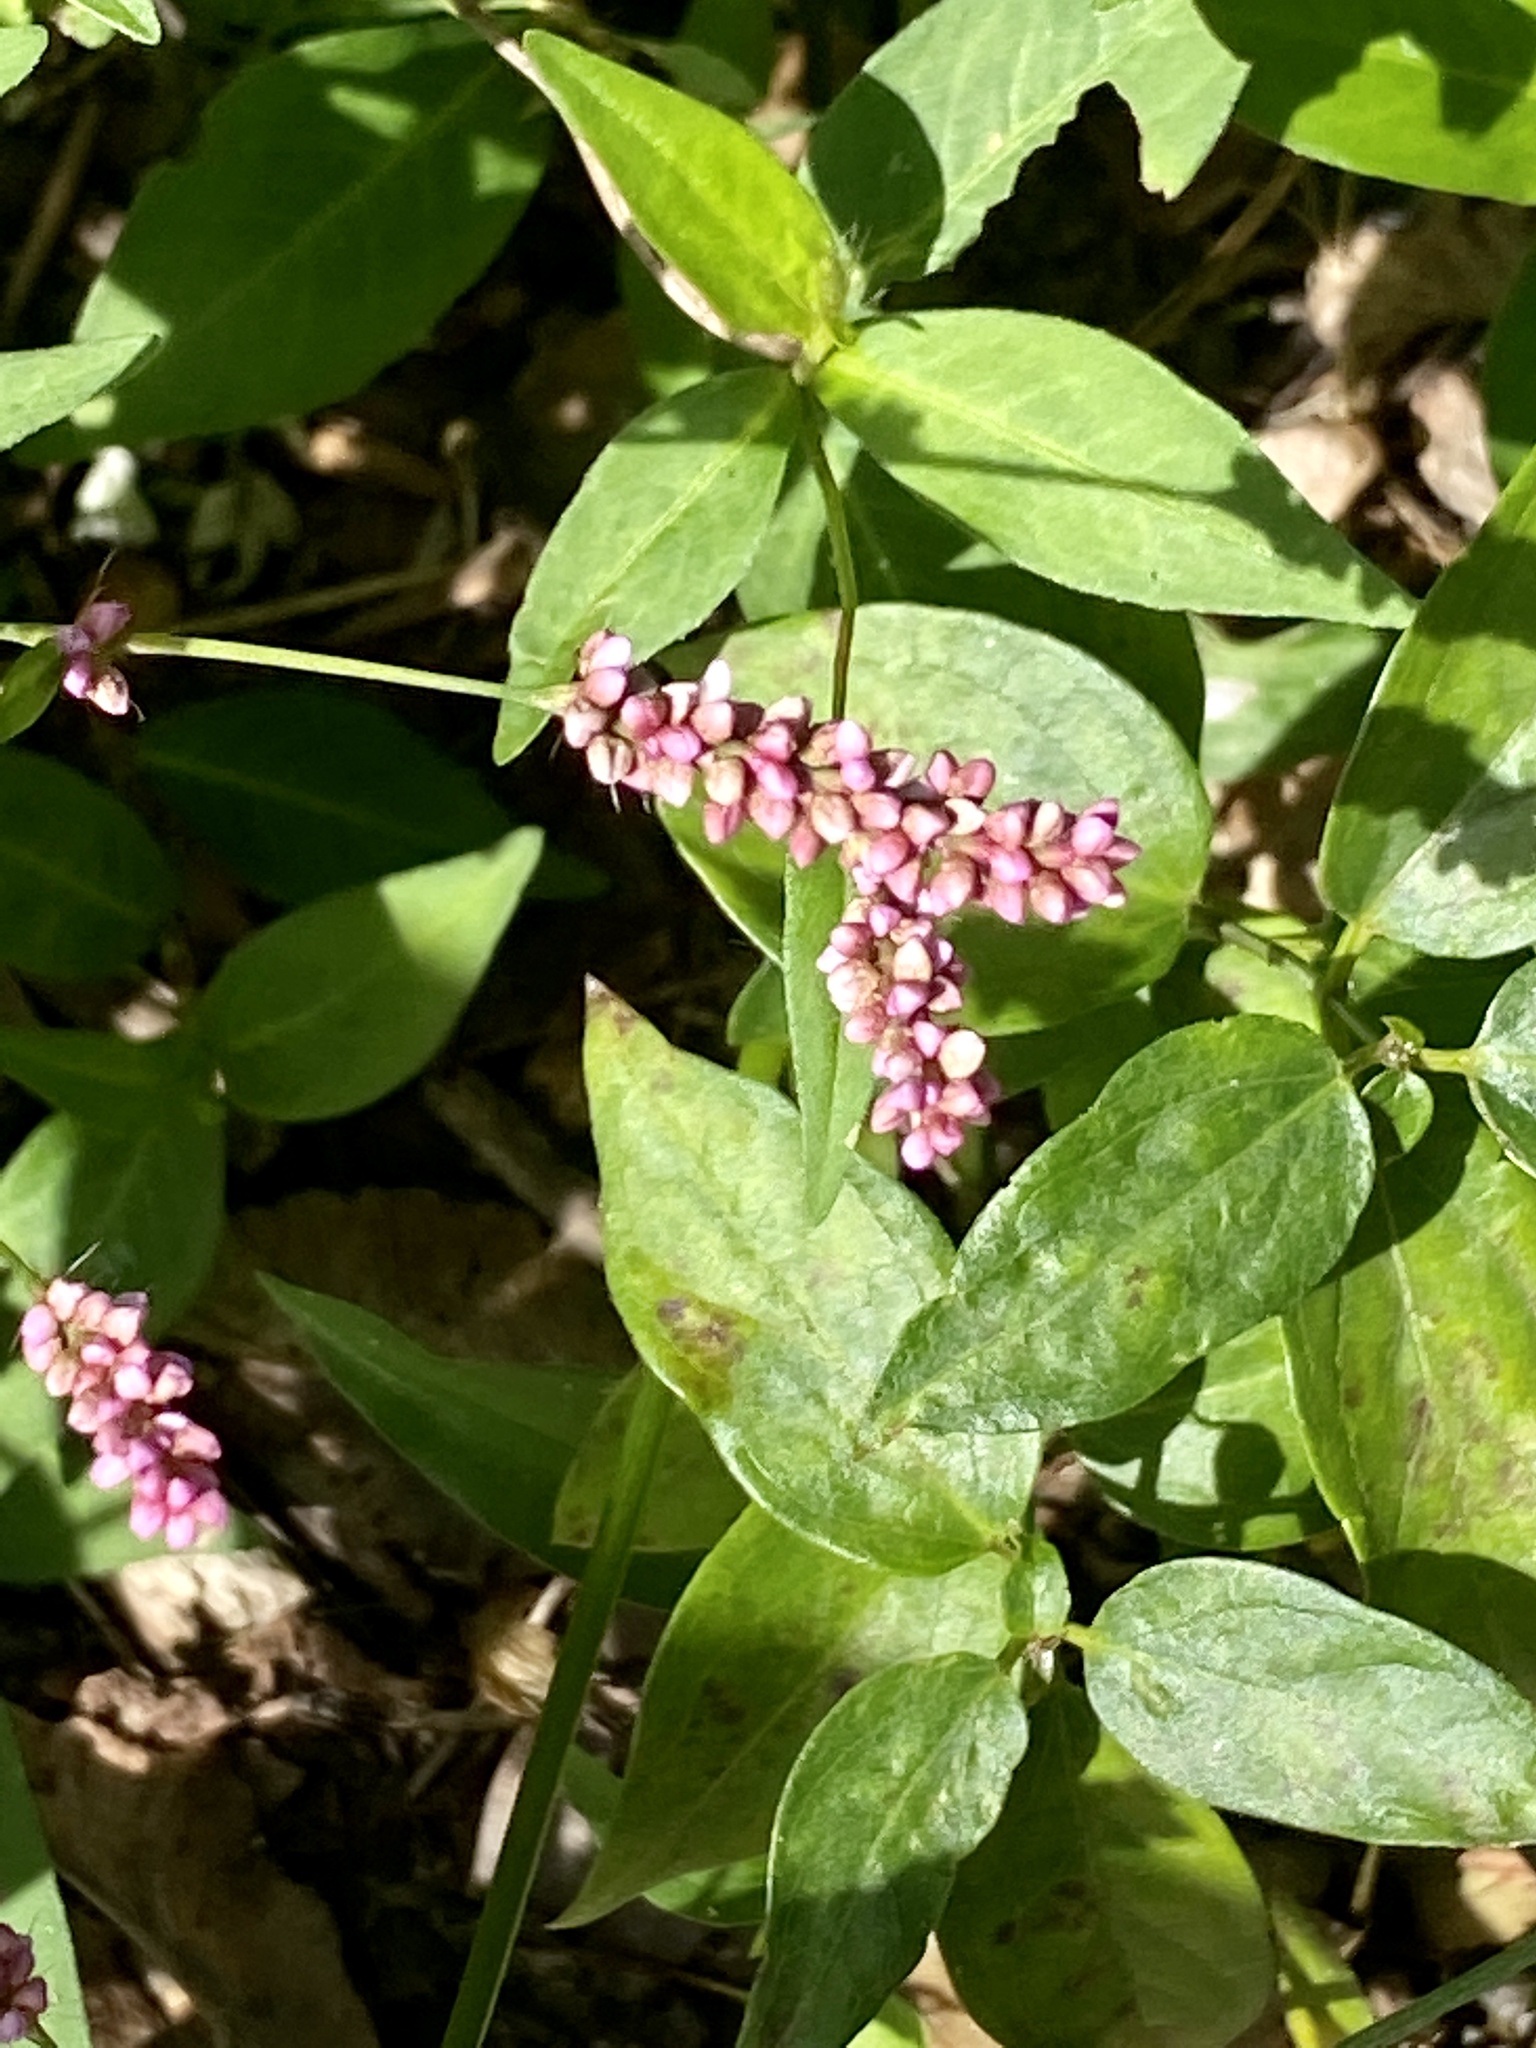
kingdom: Plantae
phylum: Tracheophyta
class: Magnoliopsida
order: Caryophyllales
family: Polygonaceae
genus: Persicaria
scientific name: Persicaria longiseta
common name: Bristly lady's-thumb
